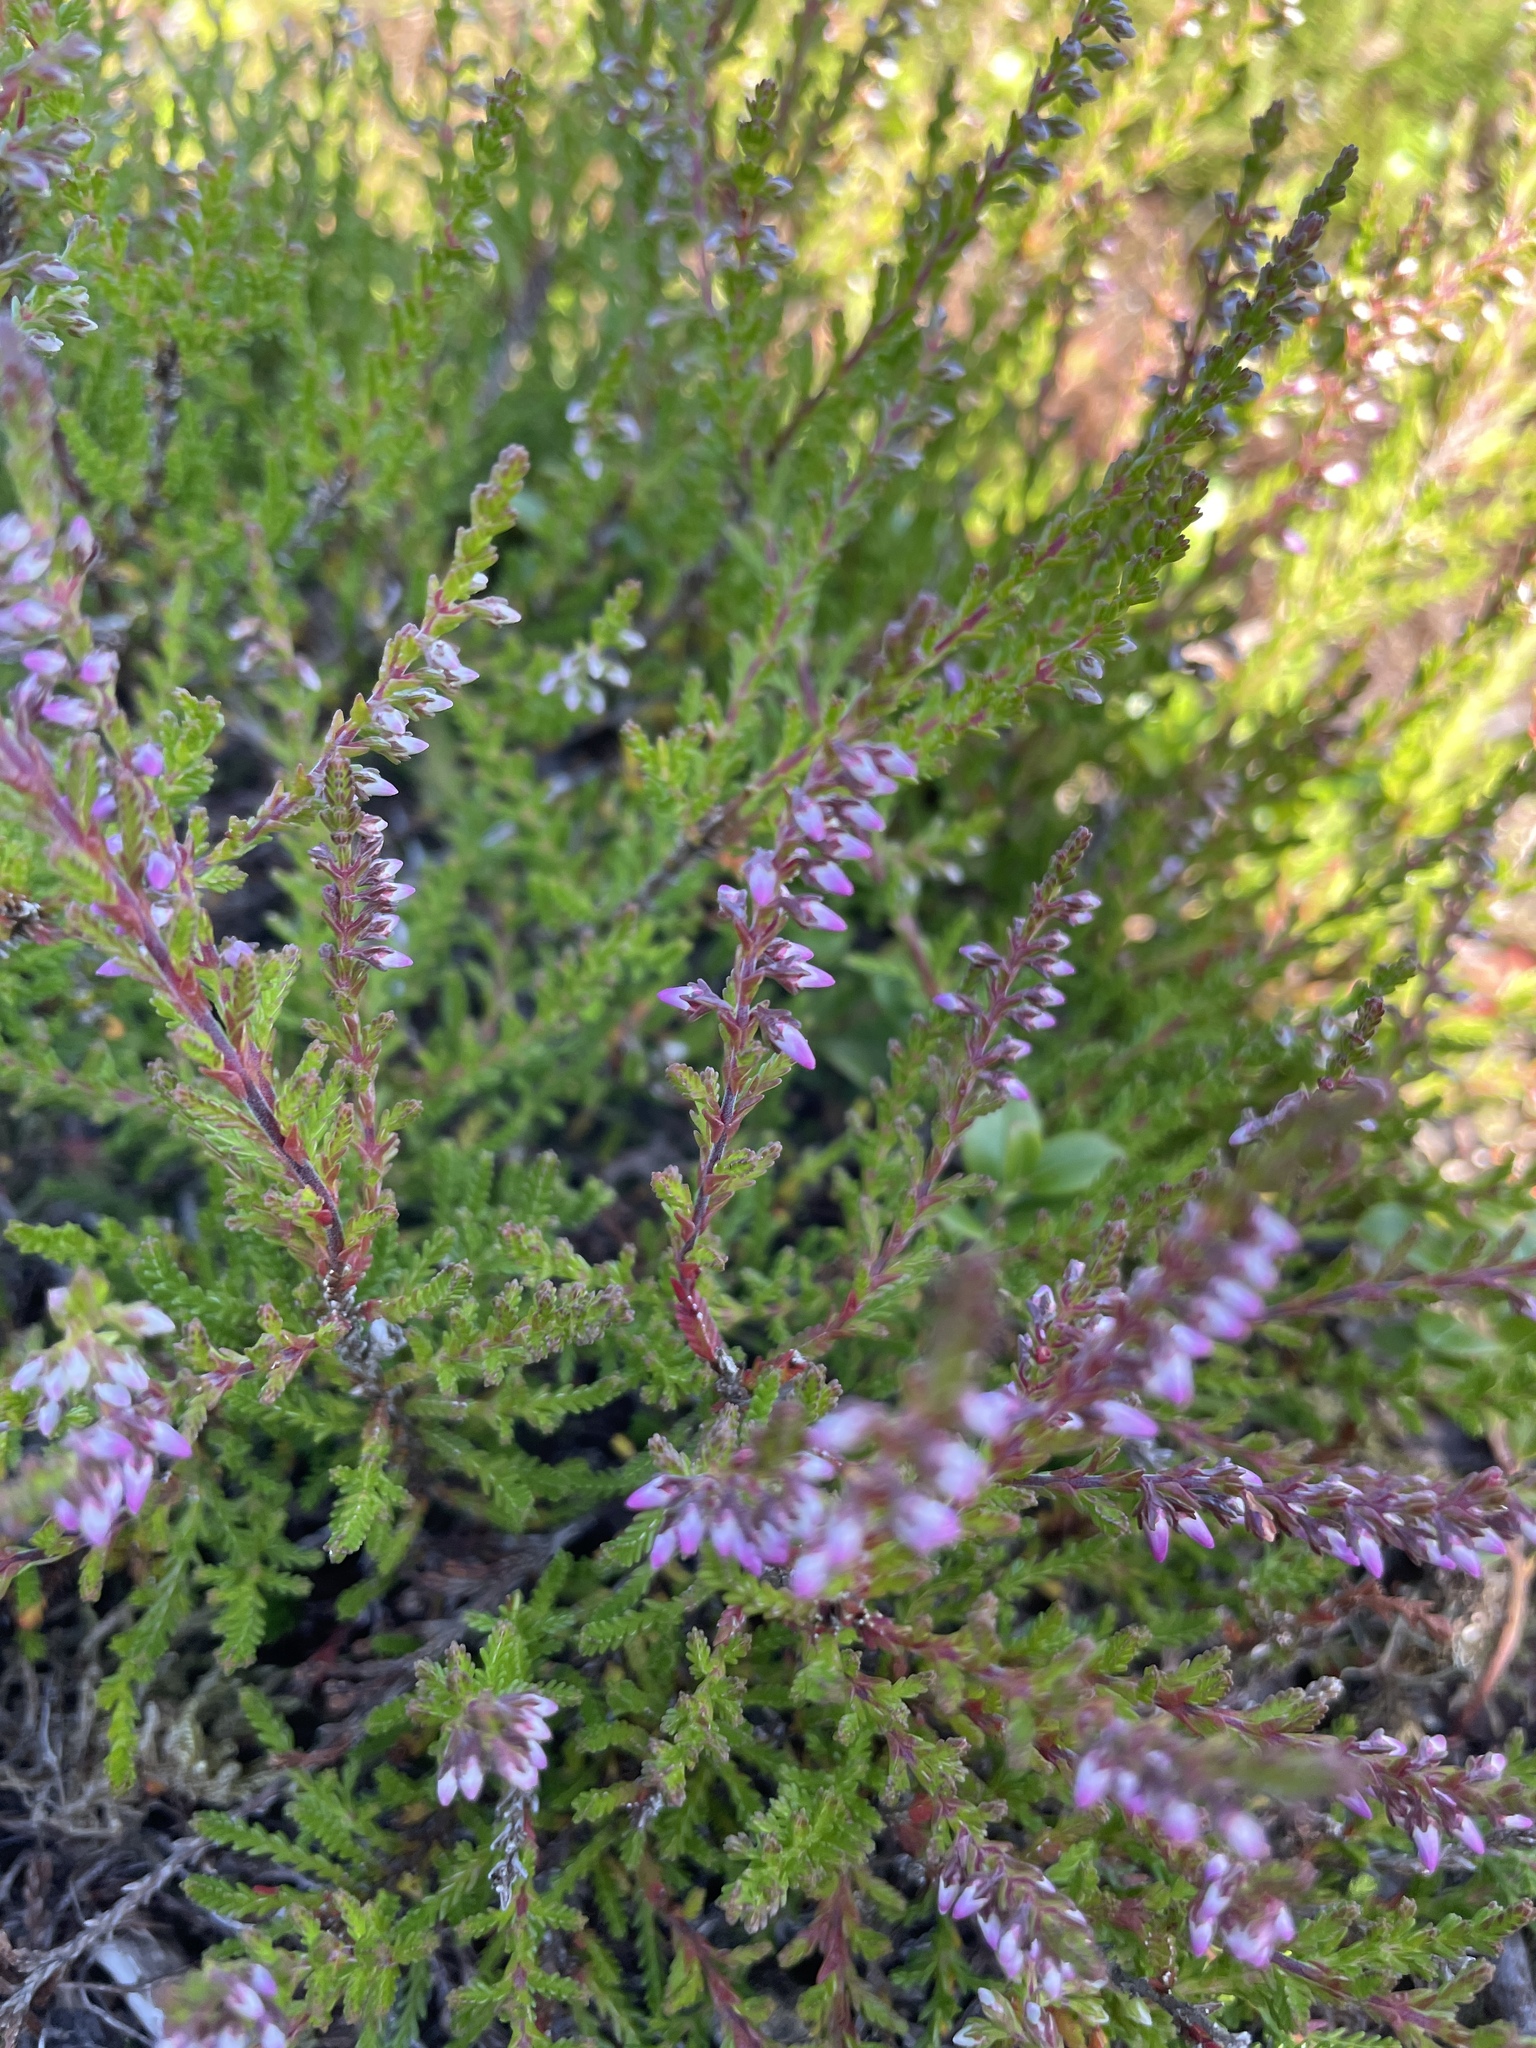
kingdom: Plantae
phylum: Tracheophyta
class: Magnoliopsida
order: Ericales
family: Ericaceae
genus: Calluna
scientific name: Calluna vulgaris
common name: Heather
